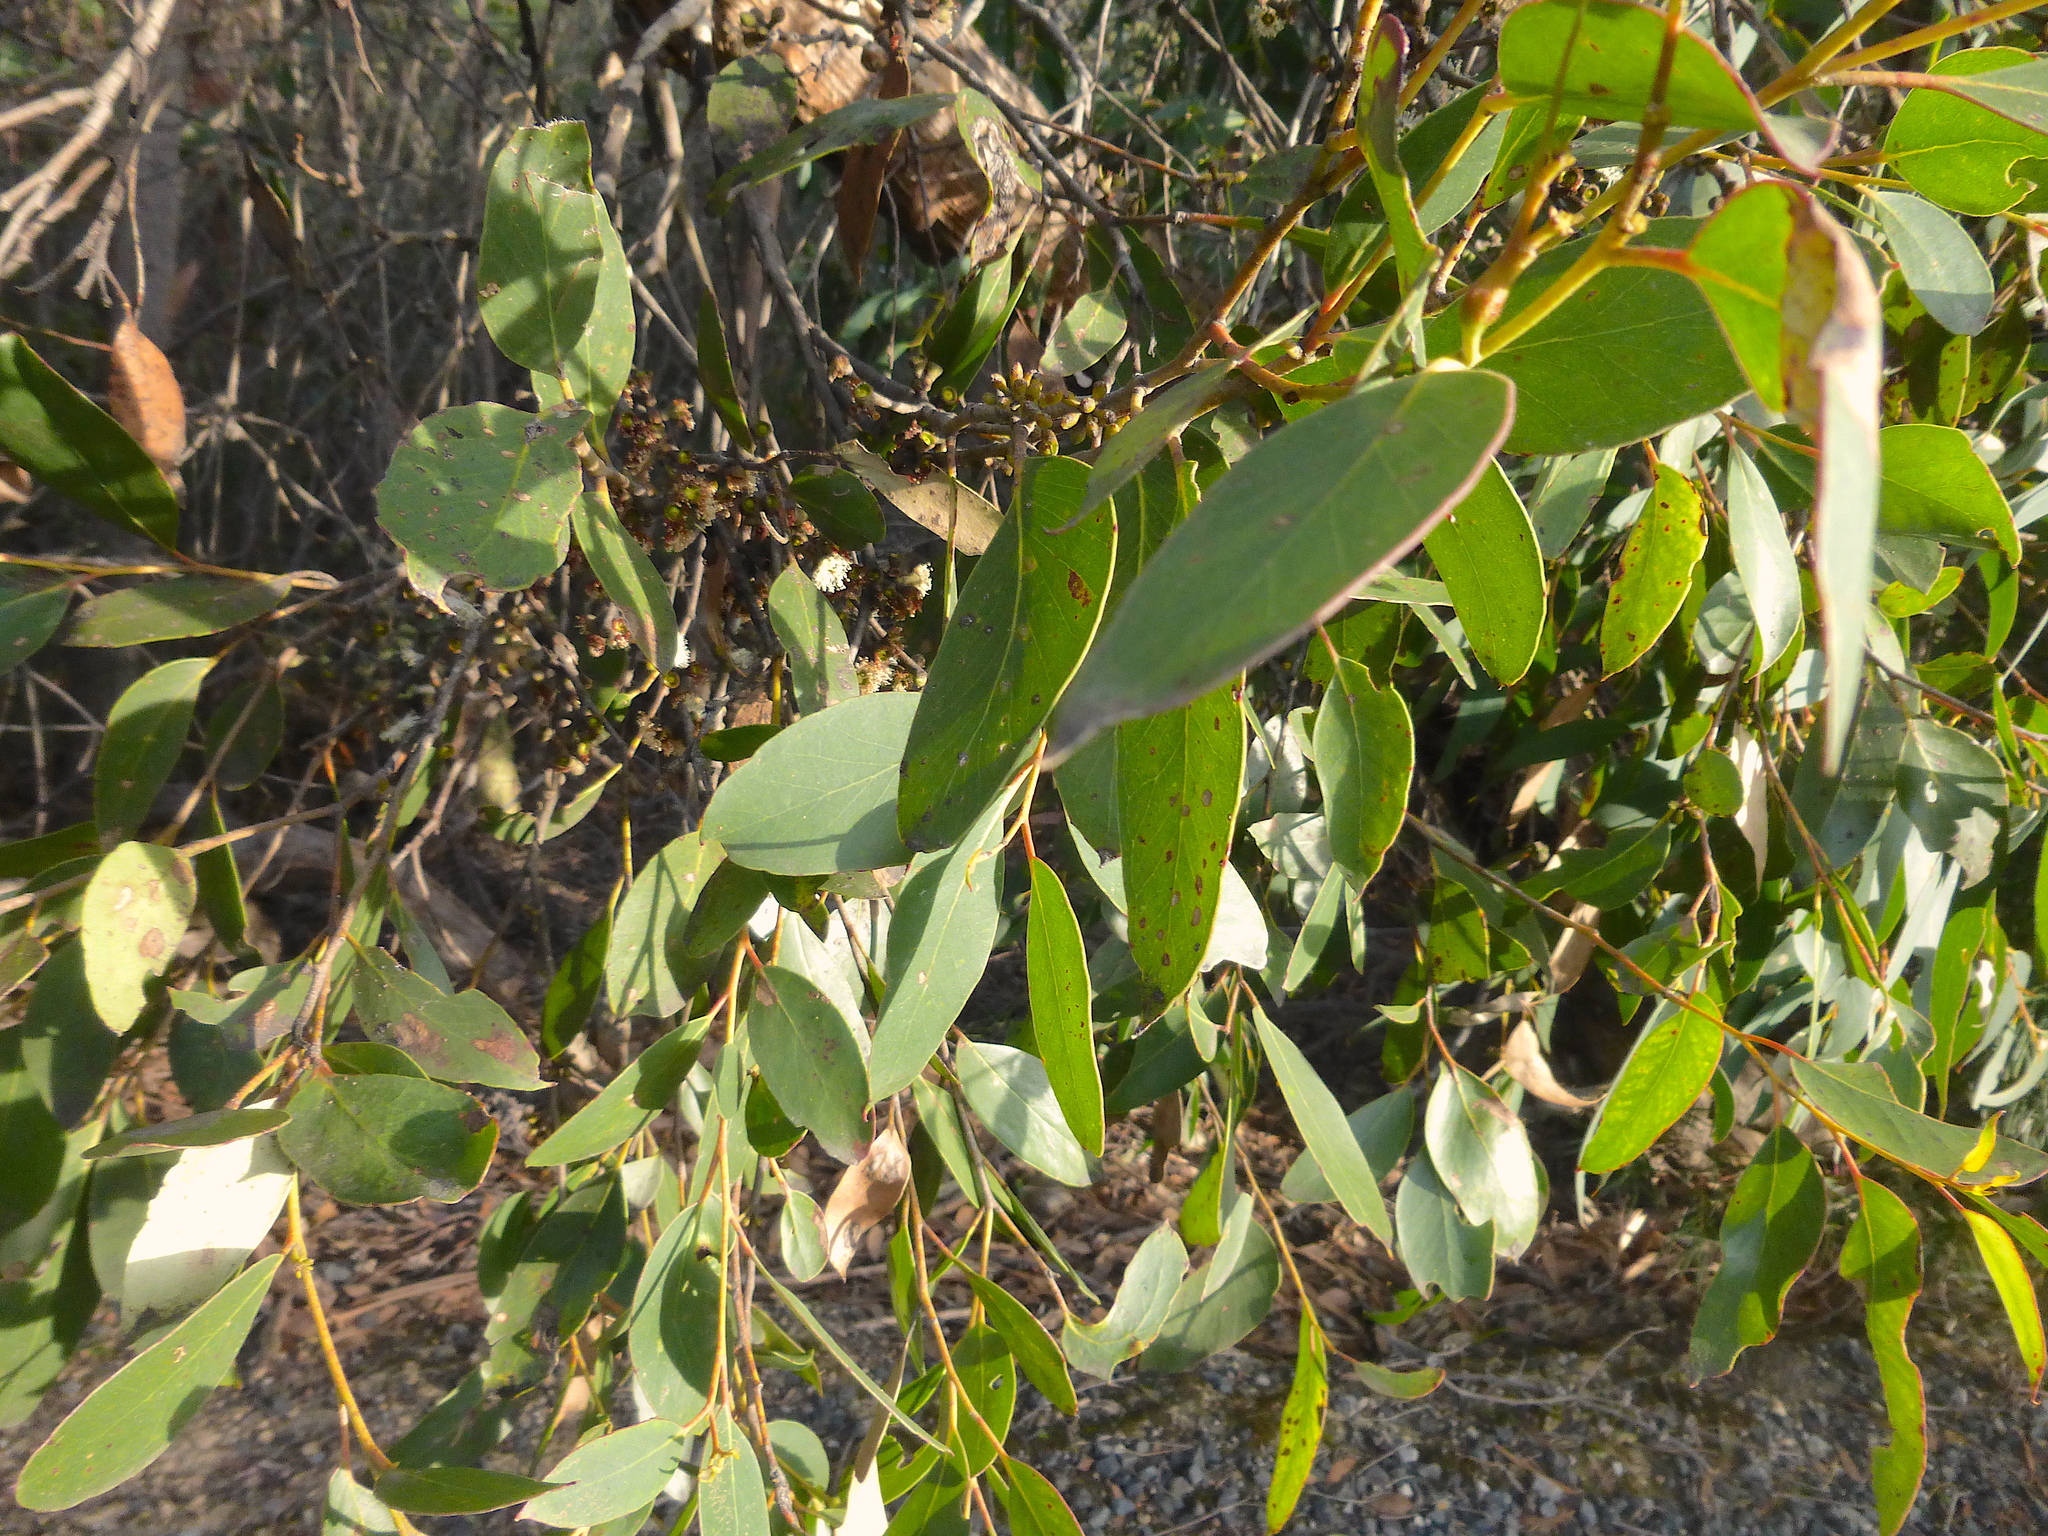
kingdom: Plantae
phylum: Tracheophyta
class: Magnoliopsida
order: Myrtales
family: Myrtaceae
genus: Eucalyptus
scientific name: Eucalyptus baxteri
